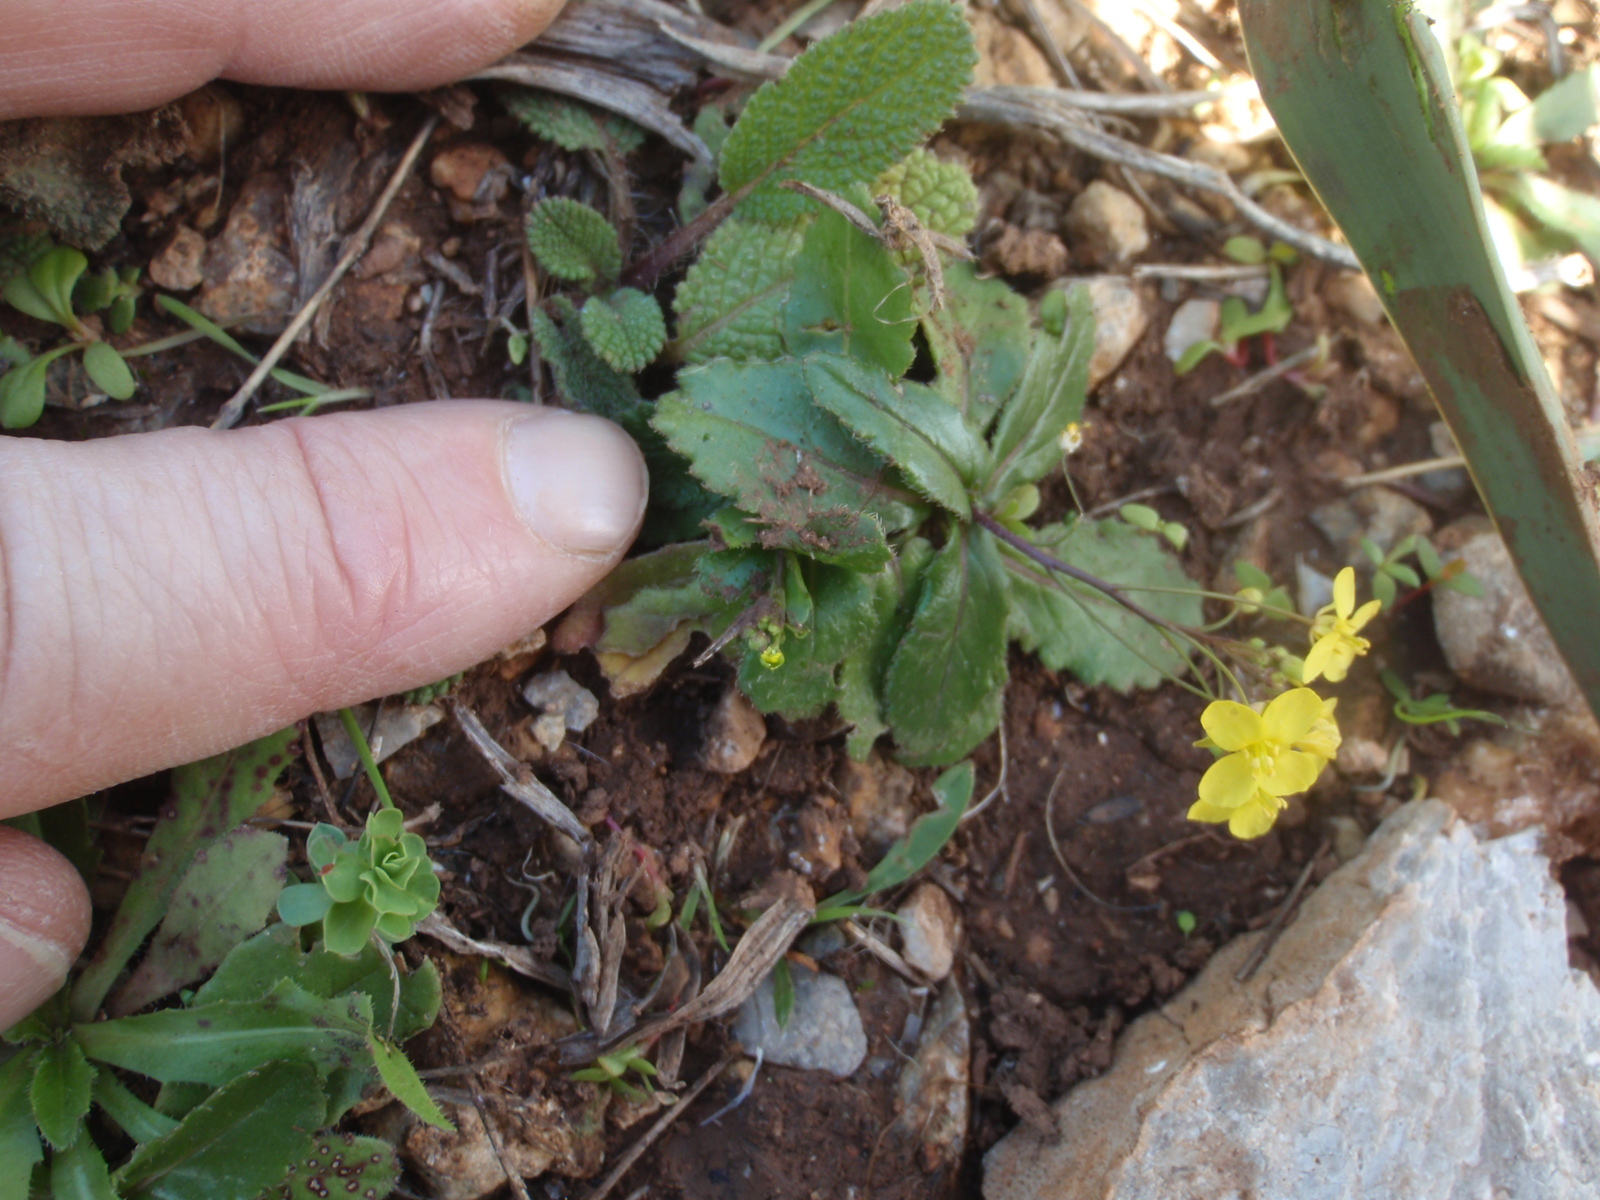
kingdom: Plantae
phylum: Tracheophyta
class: Magnoliopsida
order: Brassicales
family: Brassicaceae
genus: Brassica
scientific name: Brassica souliei
